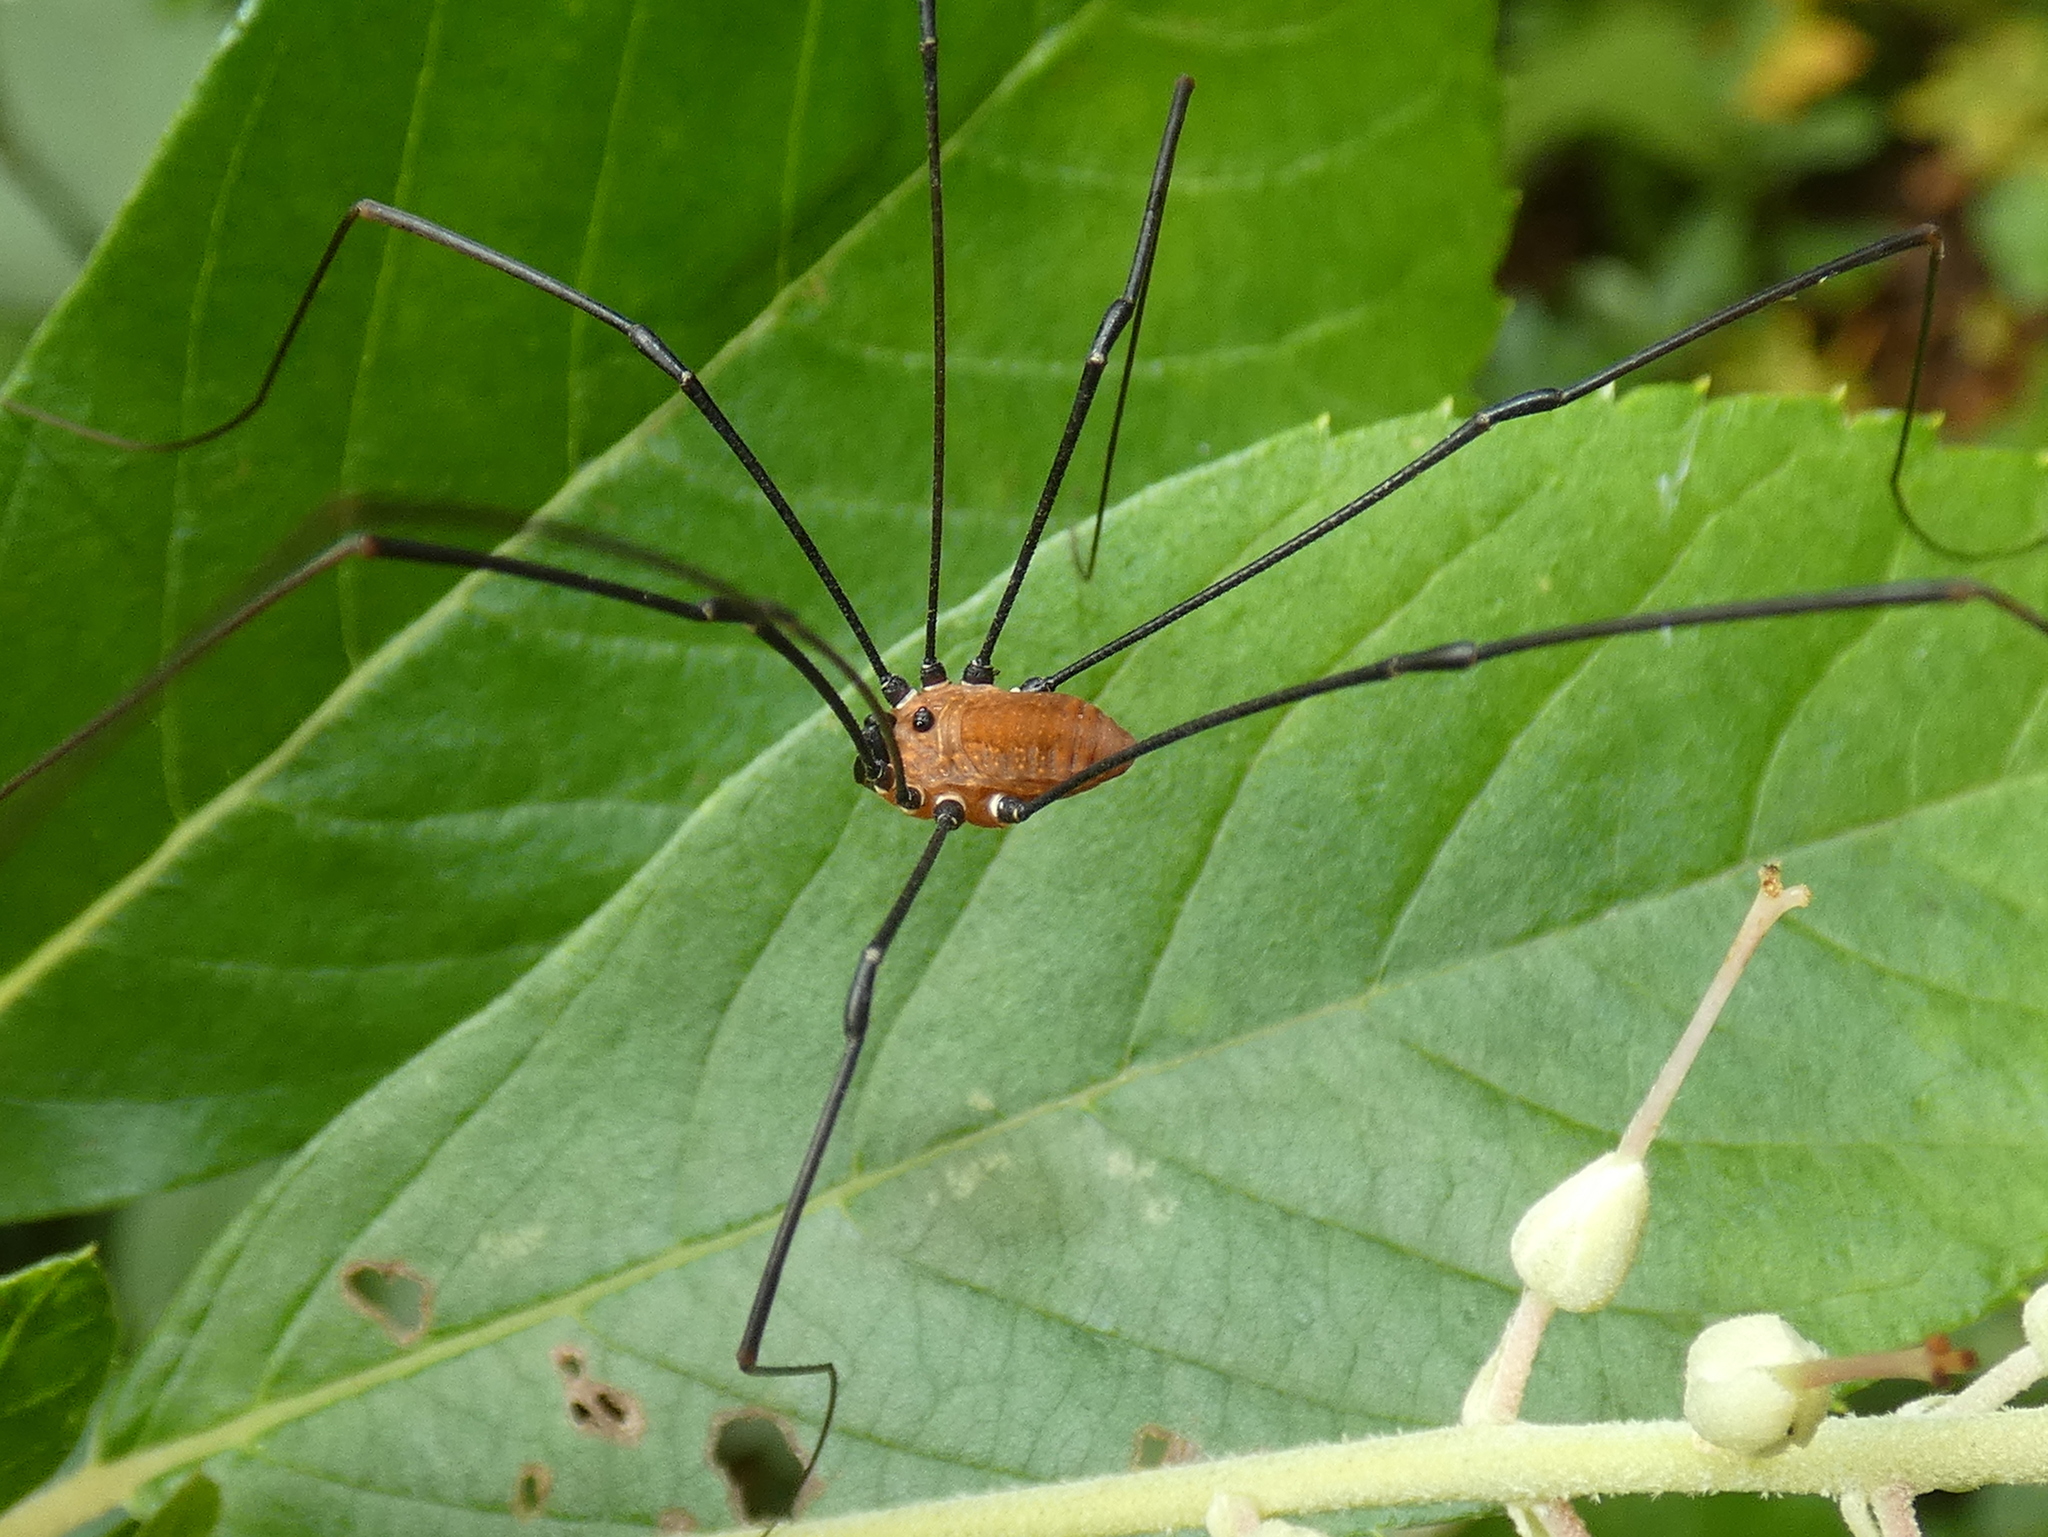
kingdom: Animalia
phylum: Arthropoda
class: Arachnida
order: Opiliones
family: Sclerosomatidae
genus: Leiobunum
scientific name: Leiobunum nigropalpi
